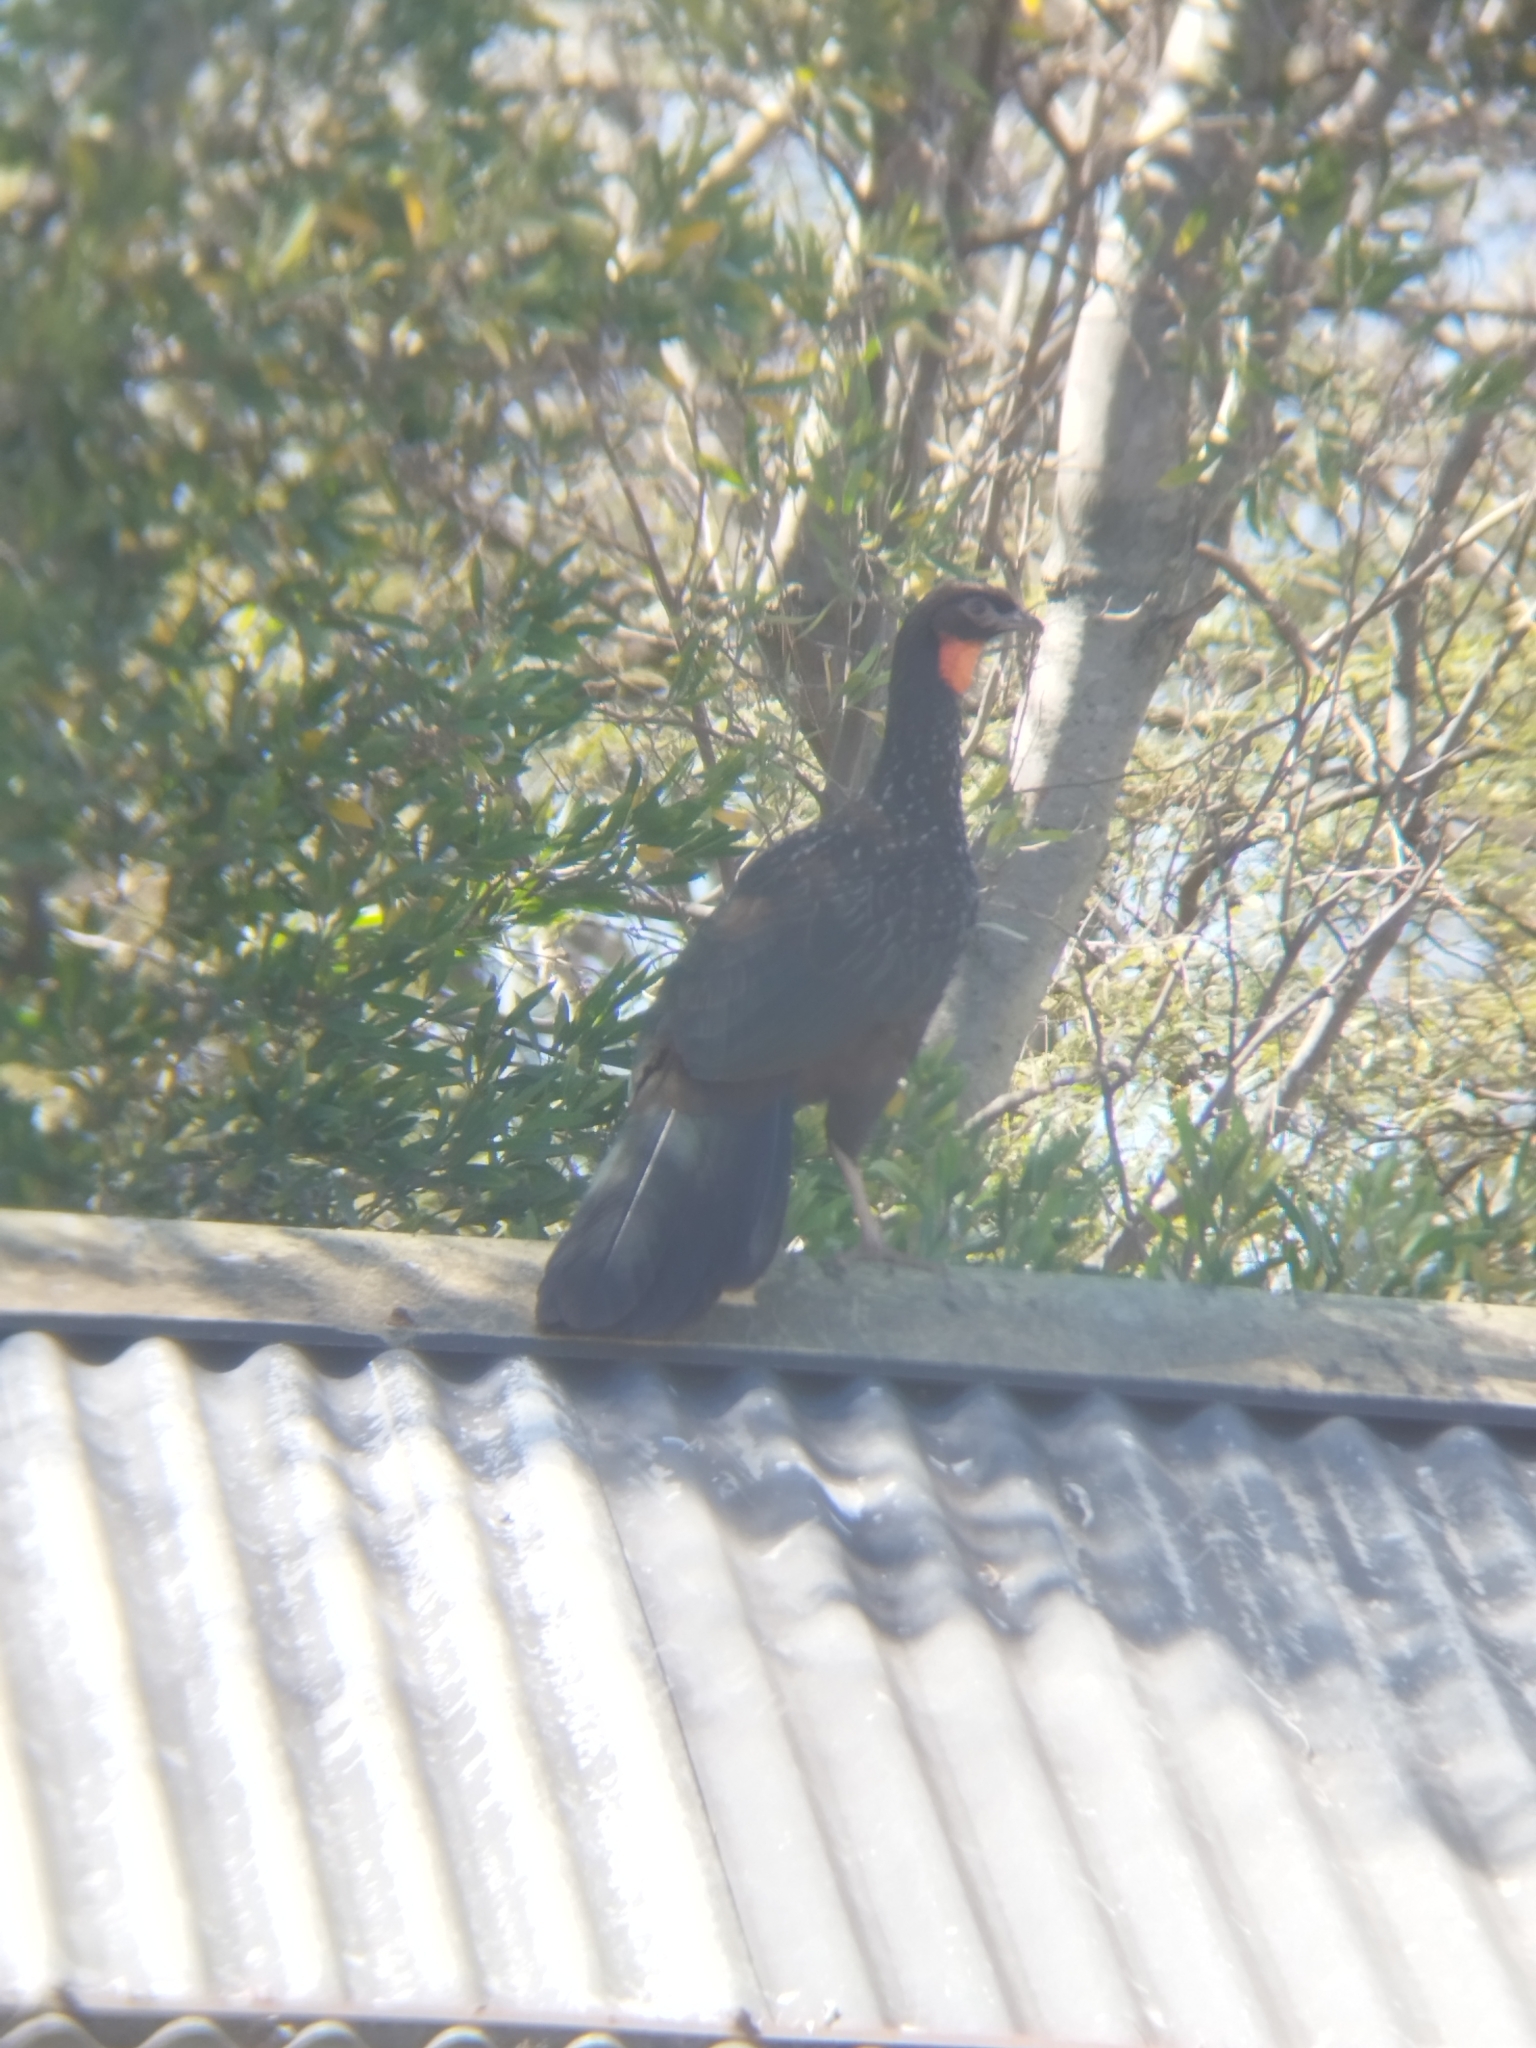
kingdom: Animalia
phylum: Chordata
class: Aves
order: Galliformes
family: Cracidae
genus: Penelope
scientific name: Penelope obscura
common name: Dusky-legged guan
